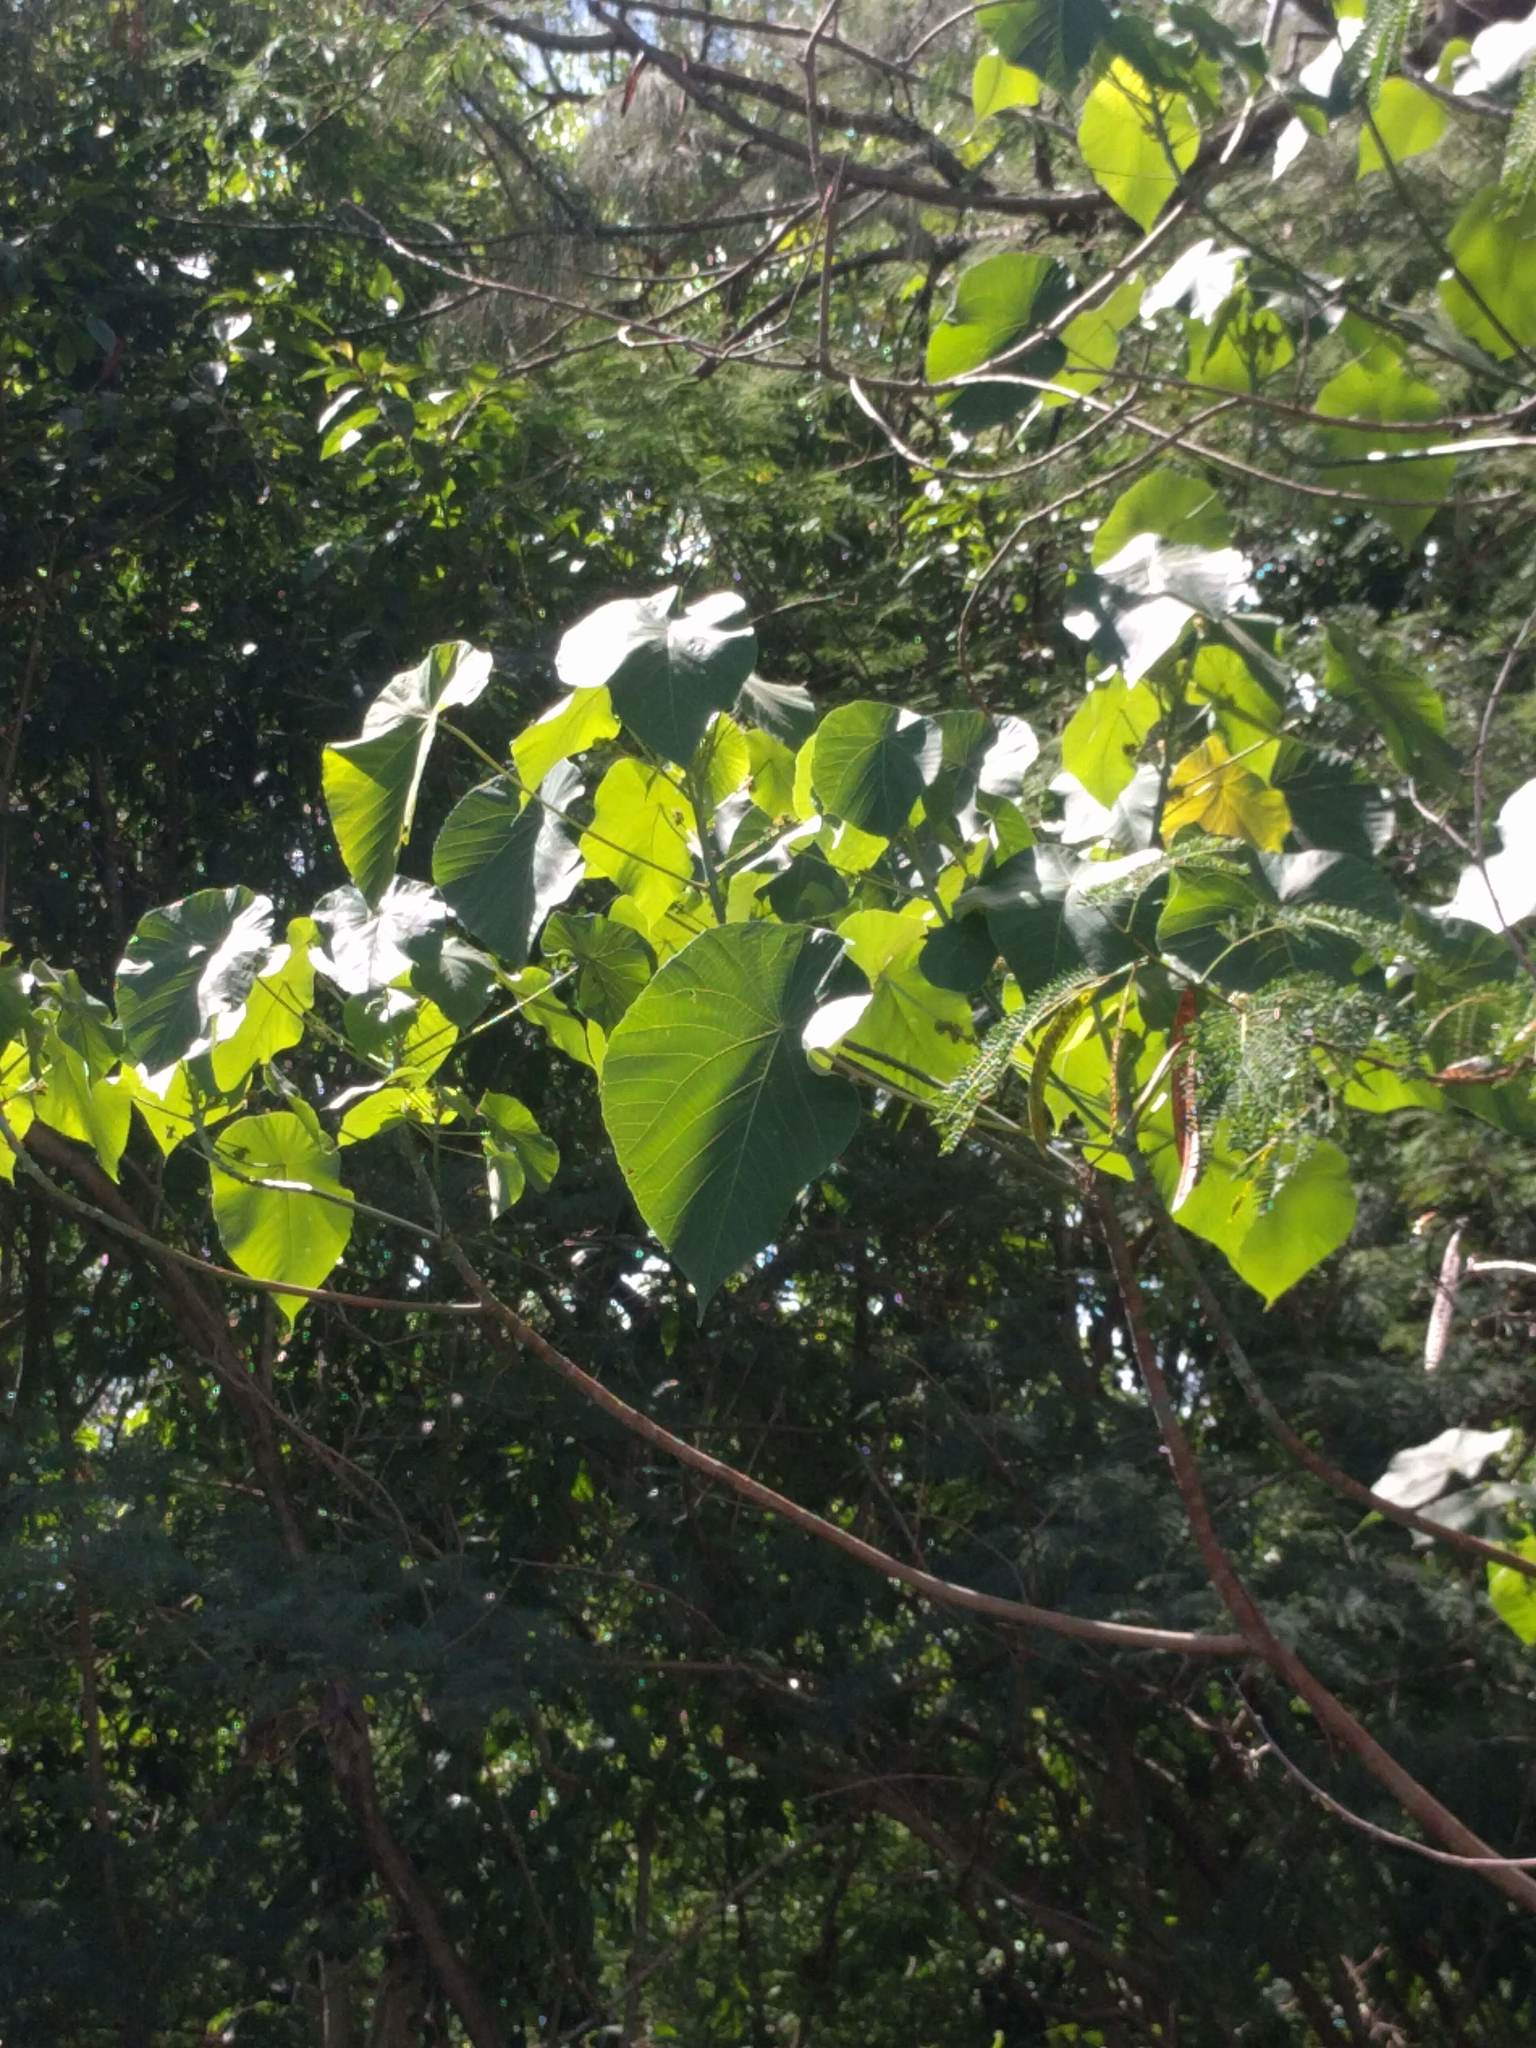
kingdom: Plantae
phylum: Tracheophyta
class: Magnoliopsida
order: Malpighiales
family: Euphorbiaceae
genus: Macaranga
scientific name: Macaranga tanarius
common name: Parasol leaf tree
